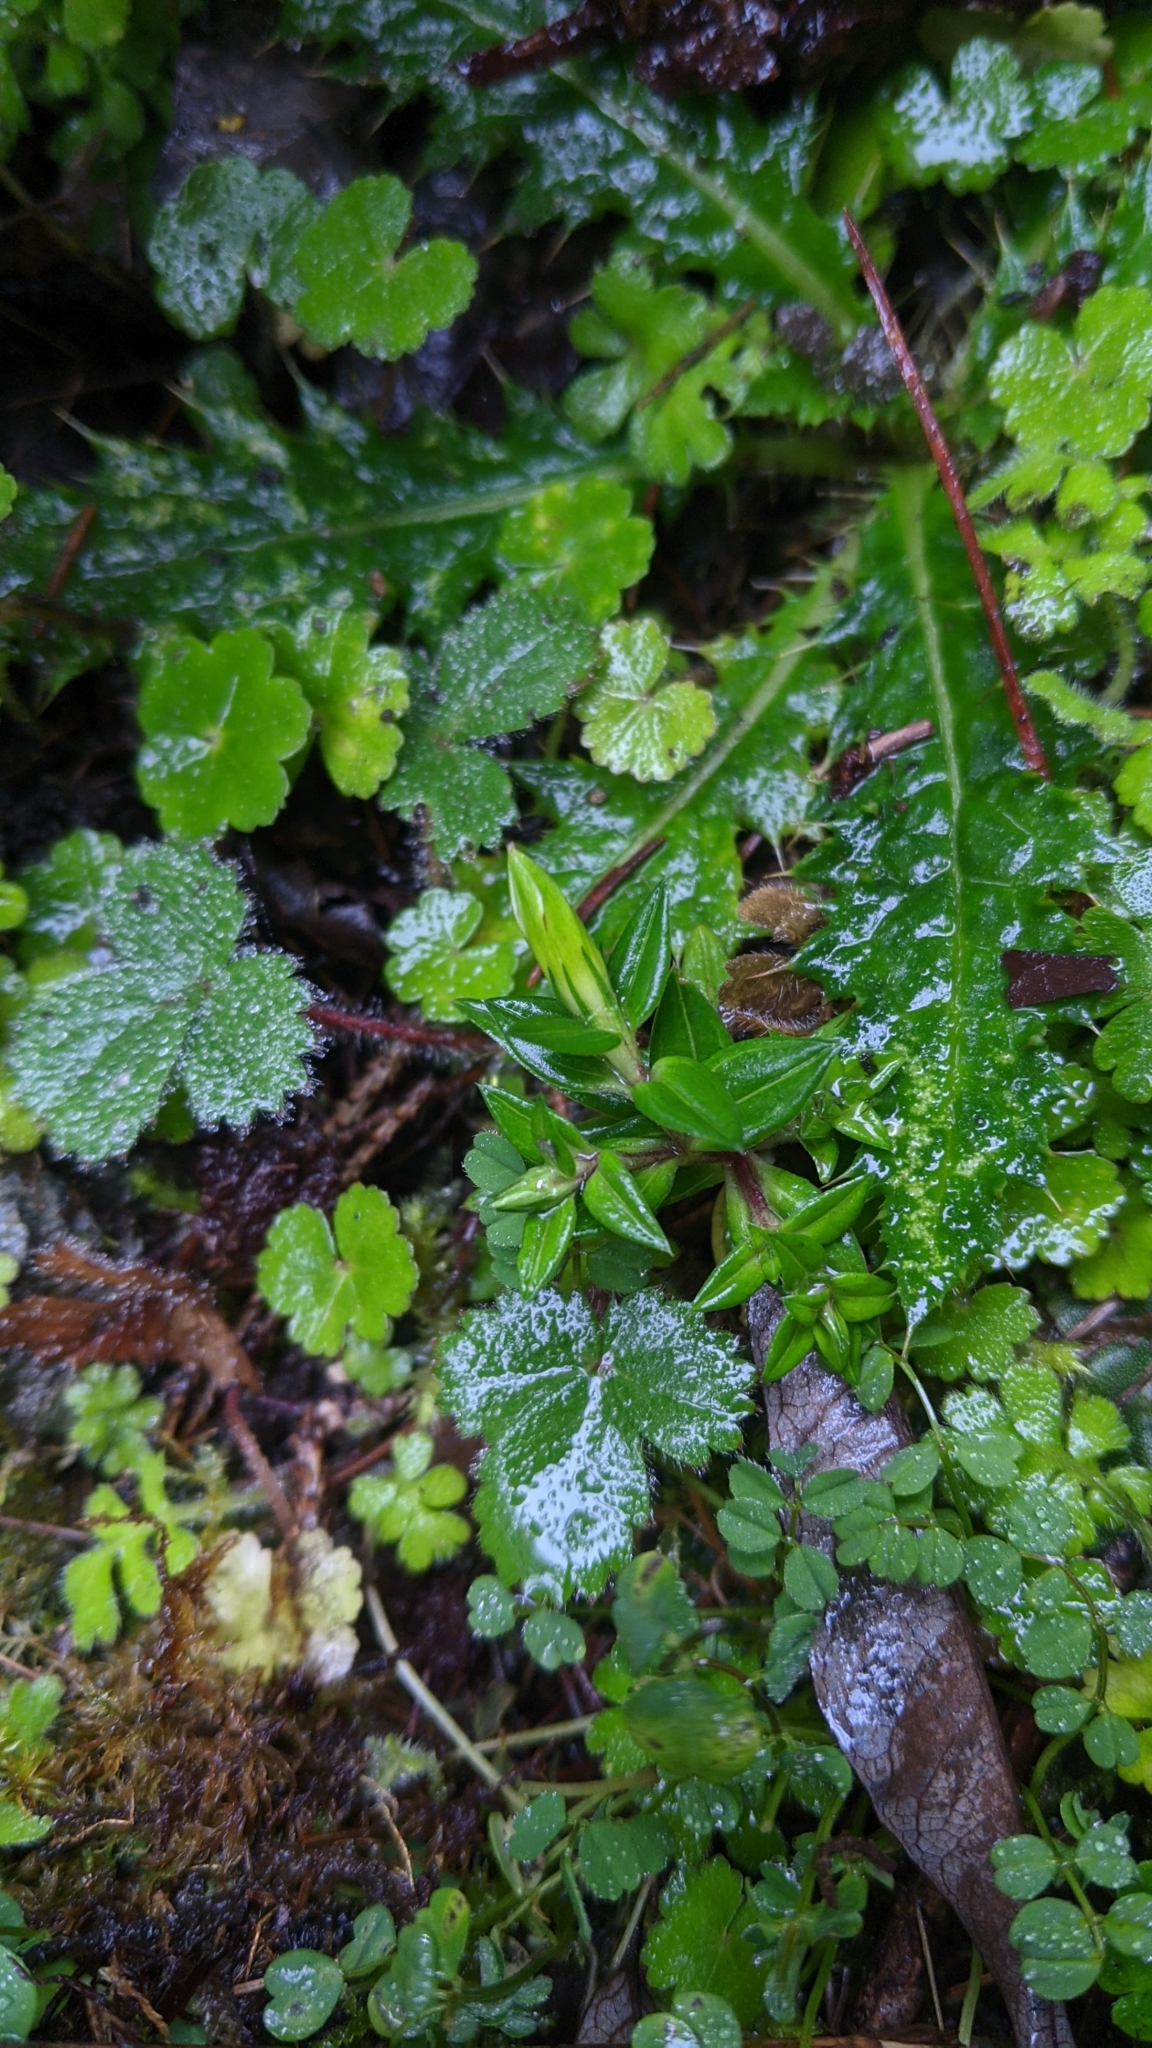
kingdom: Plantae
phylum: Tracheophyta
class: Magnoliopsida
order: Gentianales
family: Gentianaceae
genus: Gentiana
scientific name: Gentiana flavomaculata
